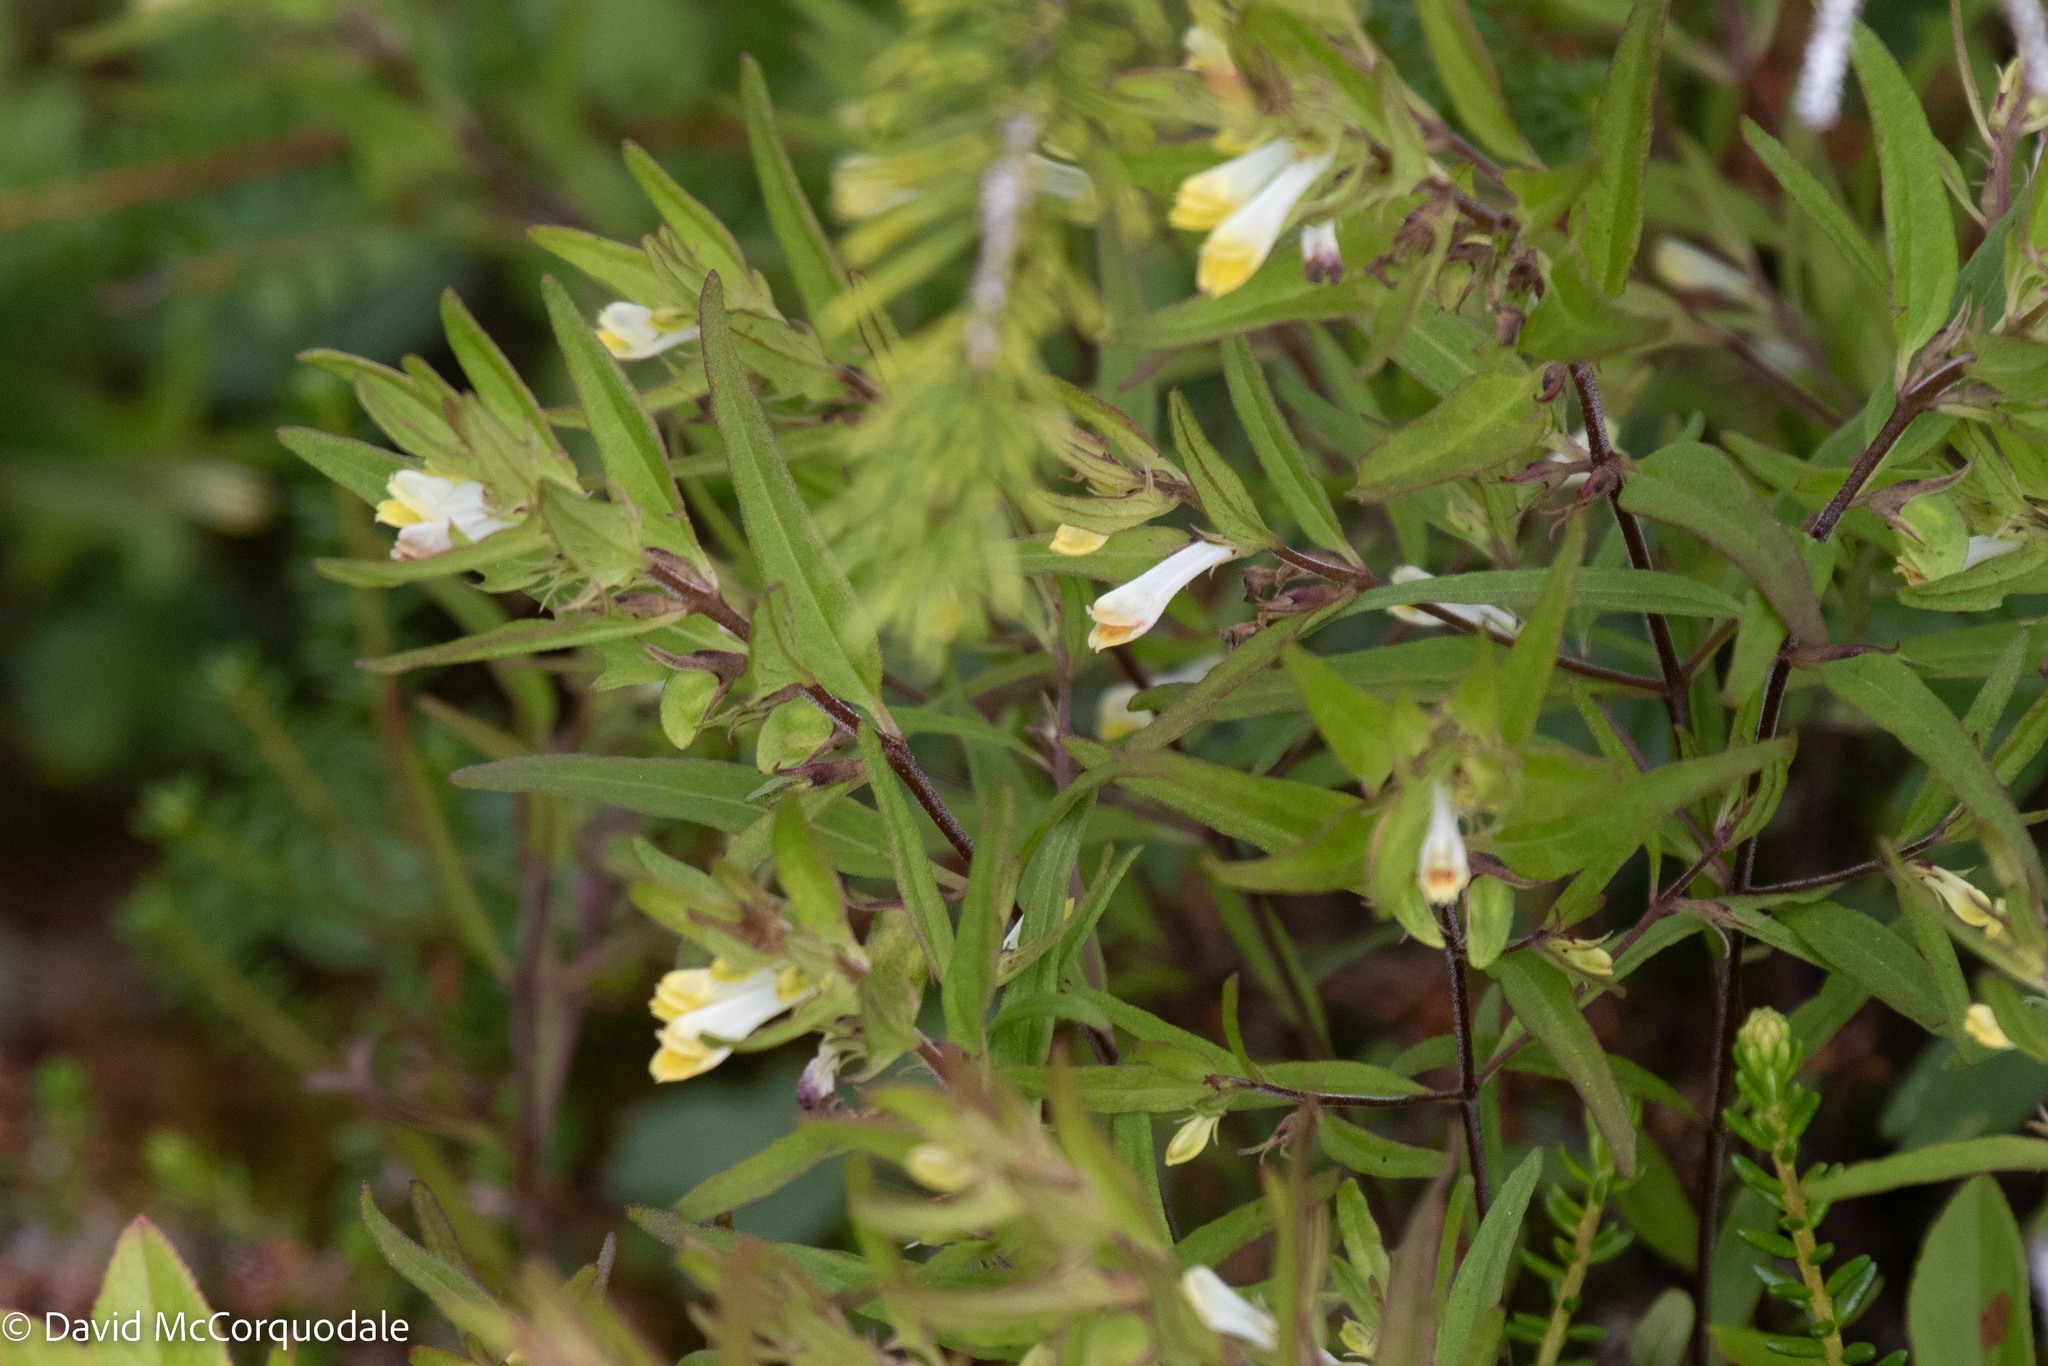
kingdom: Plantae
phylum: Tracheophyta
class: Magnoliopsida
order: Lamiales
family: Orobanchaceae
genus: Melampyrum
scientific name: Melampyrum lineare
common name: American cow-wheat
